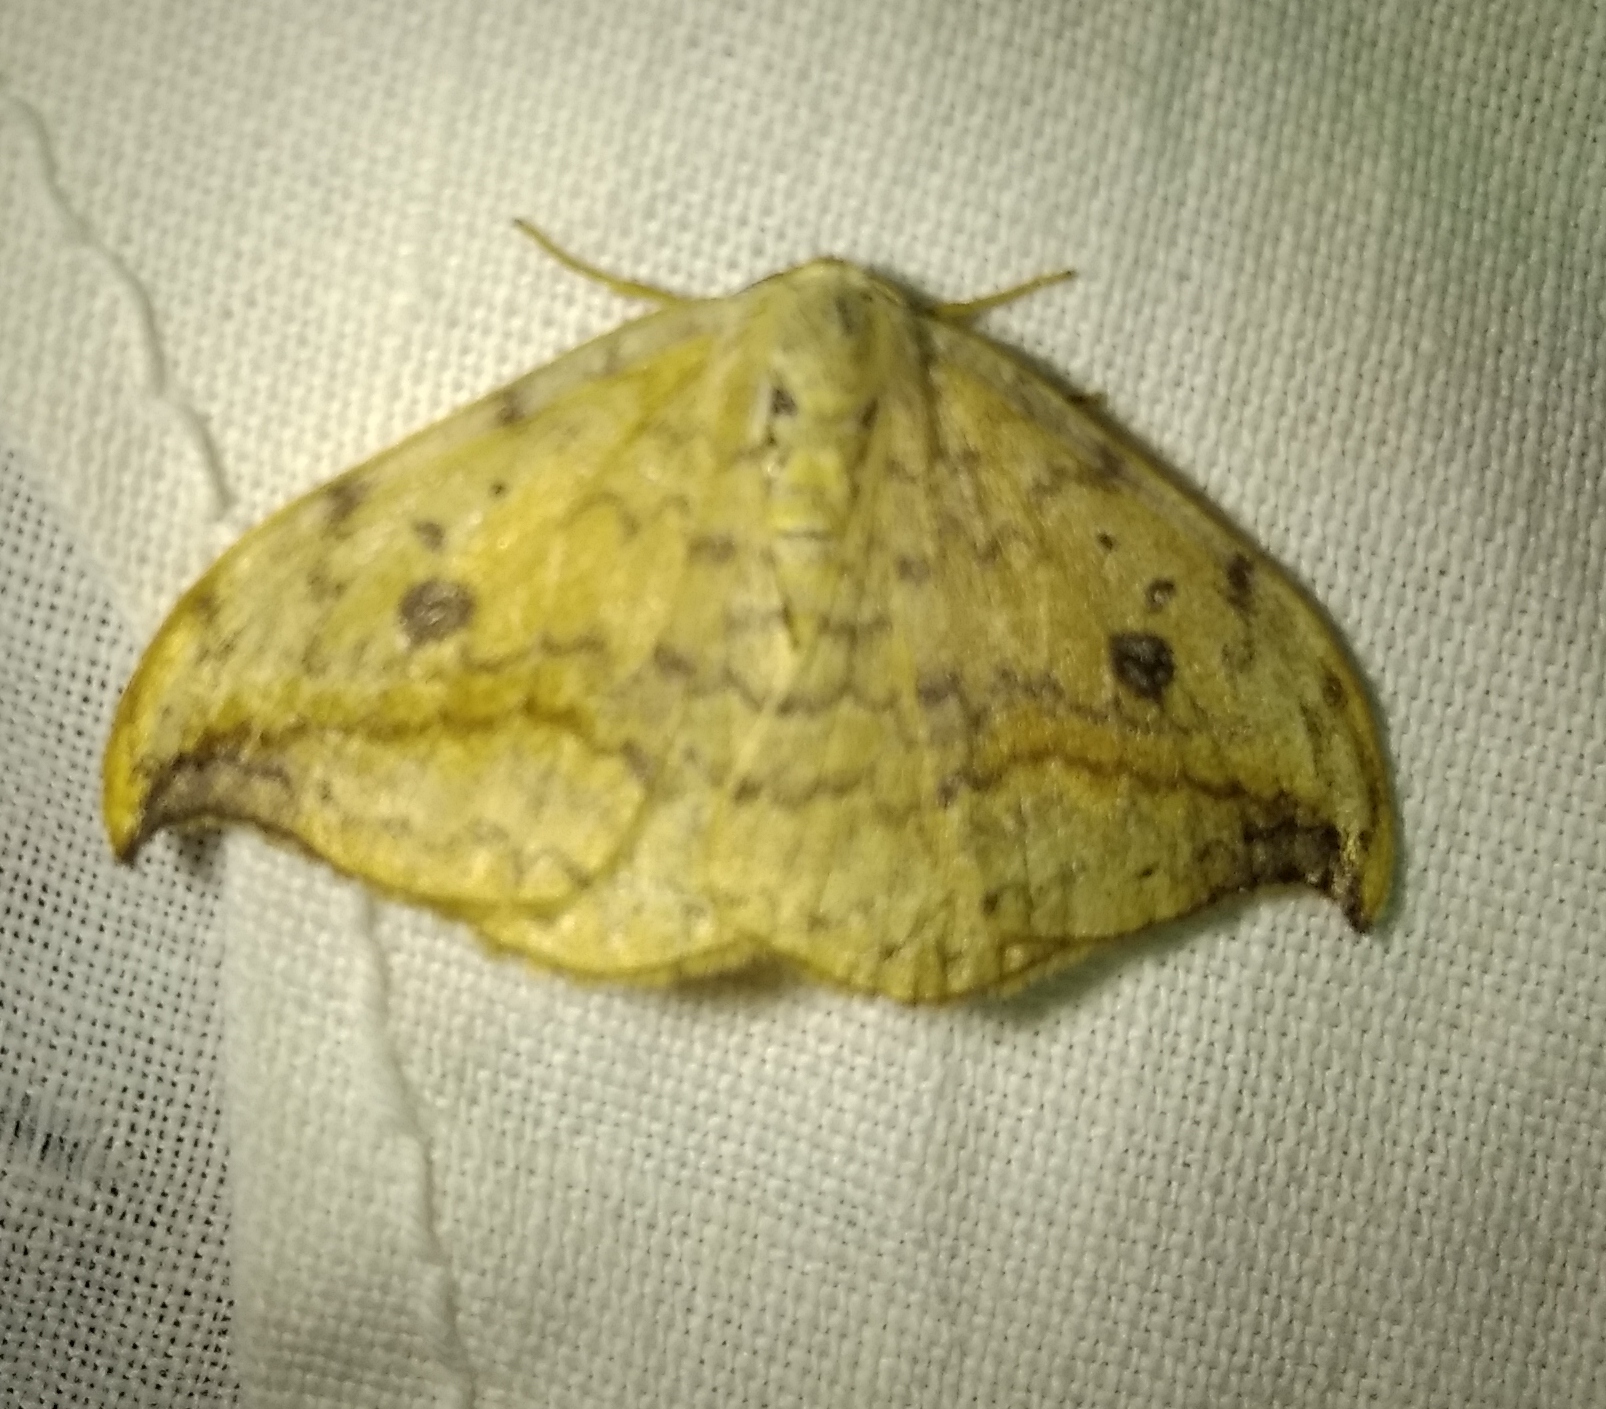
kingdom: Animalia
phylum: Arthropoda
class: Insecta
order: Lepidoptera
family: Drepanidae
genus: Drepana
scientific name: Drepana falcataria
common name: Pebble hook-tip
